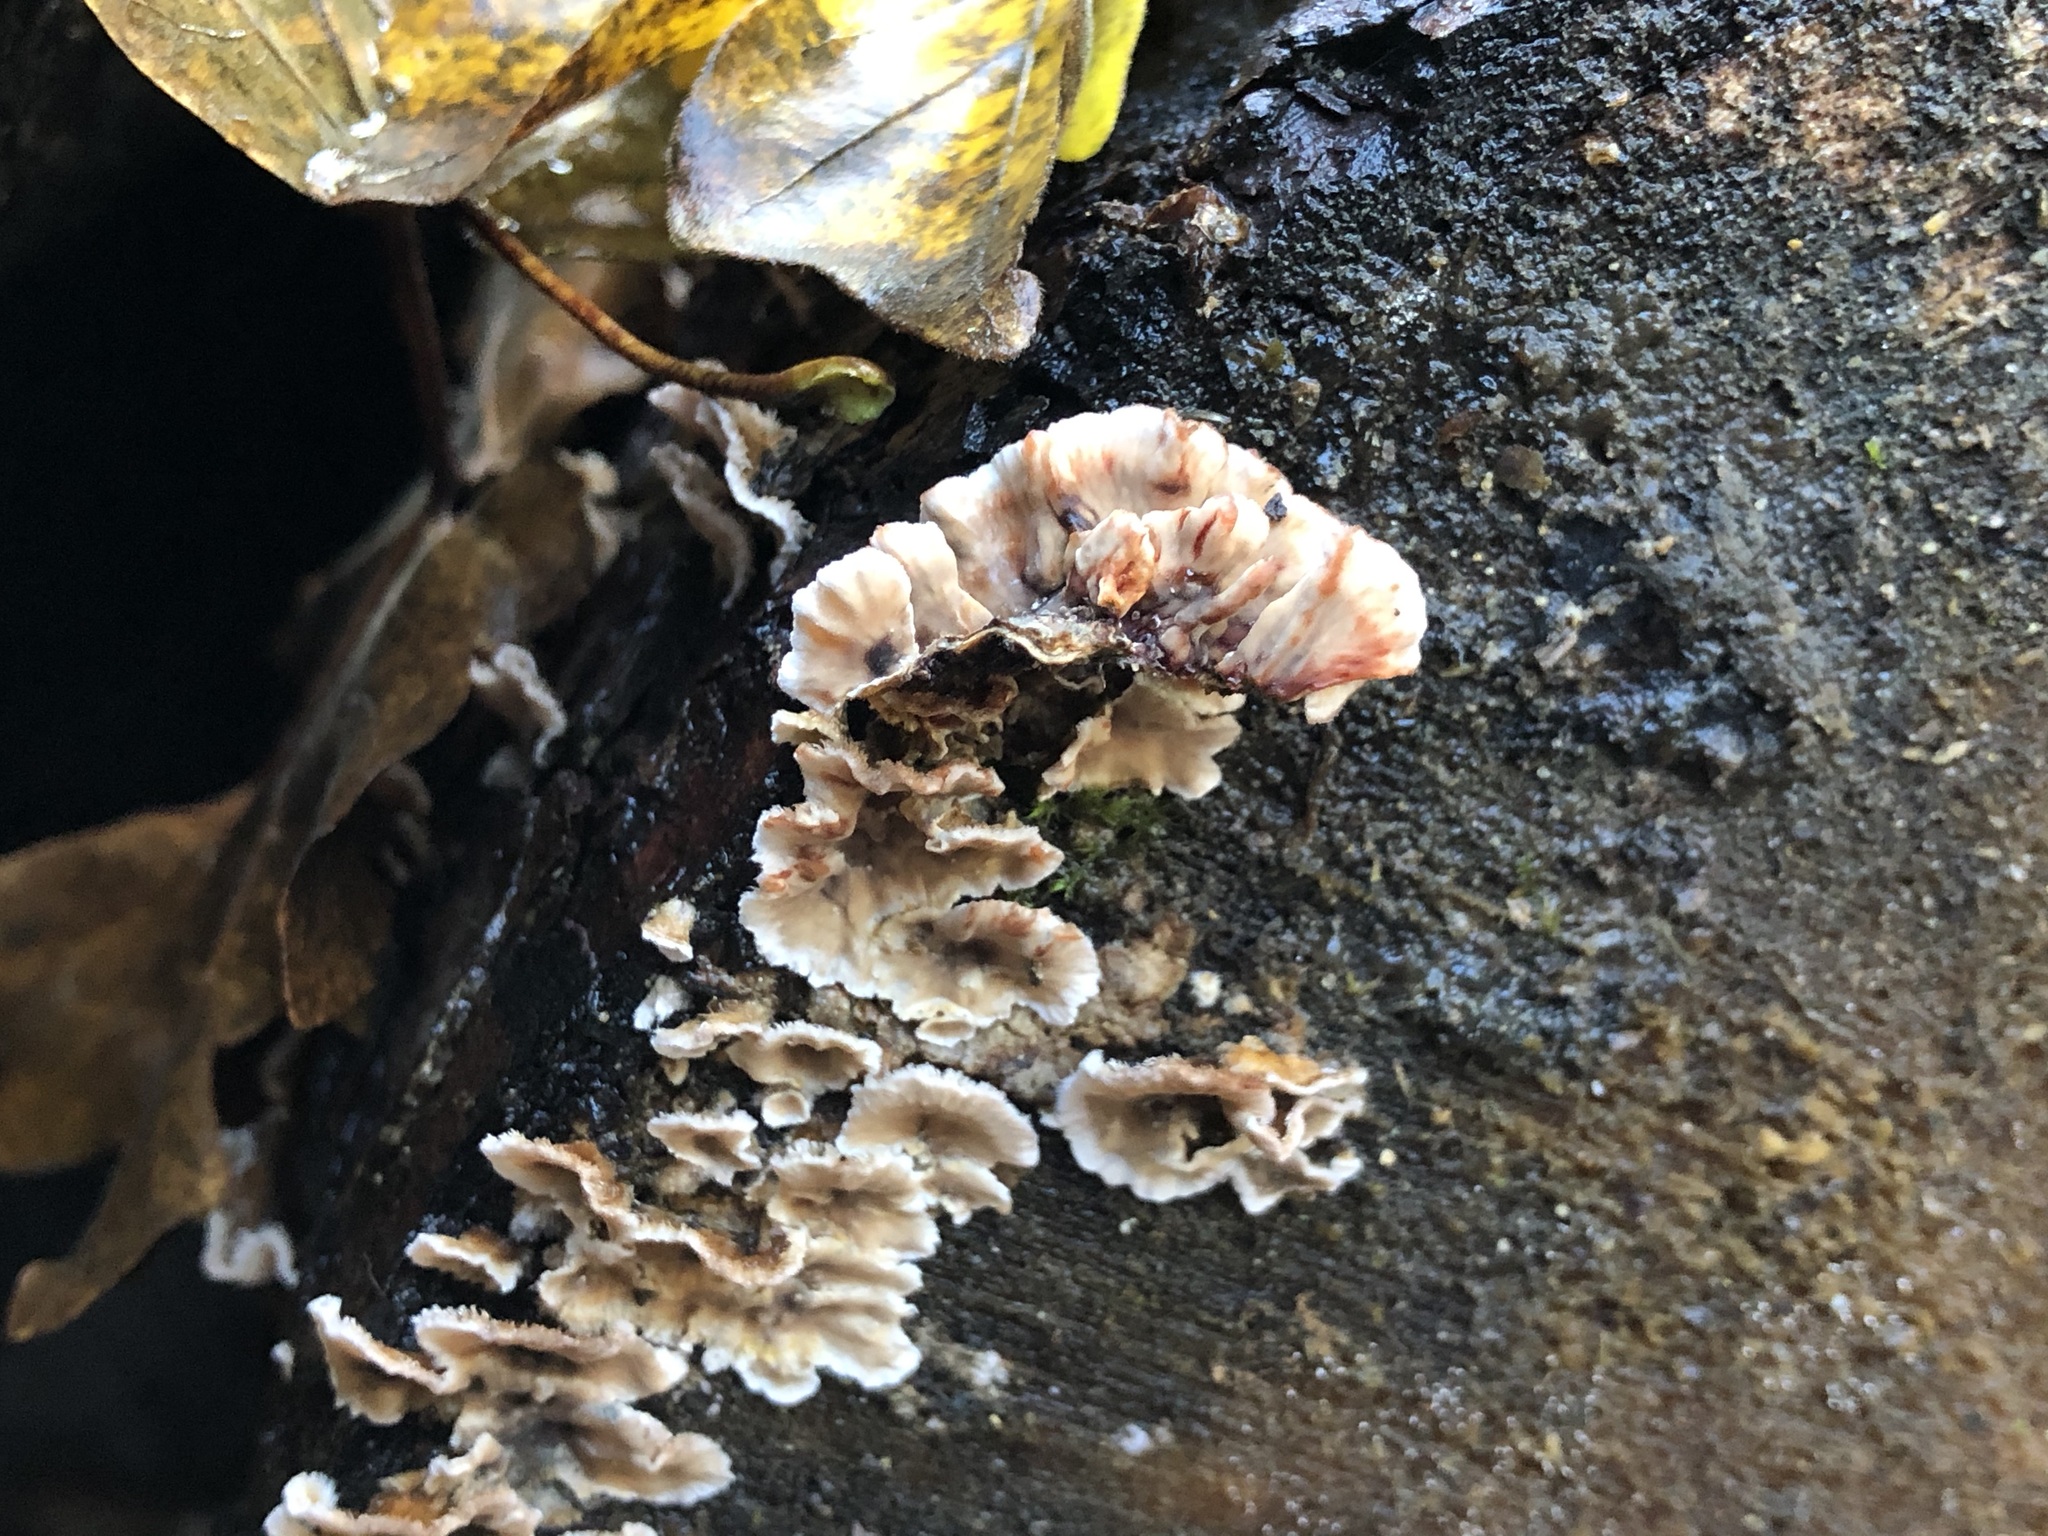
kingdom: Fungi
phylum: Basidiomycota
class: Agaricomycetes
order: Russulales
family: Stereaceae
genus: Stereum
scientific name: Stereum sanguinolentum
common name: Bleeding conifer crust
